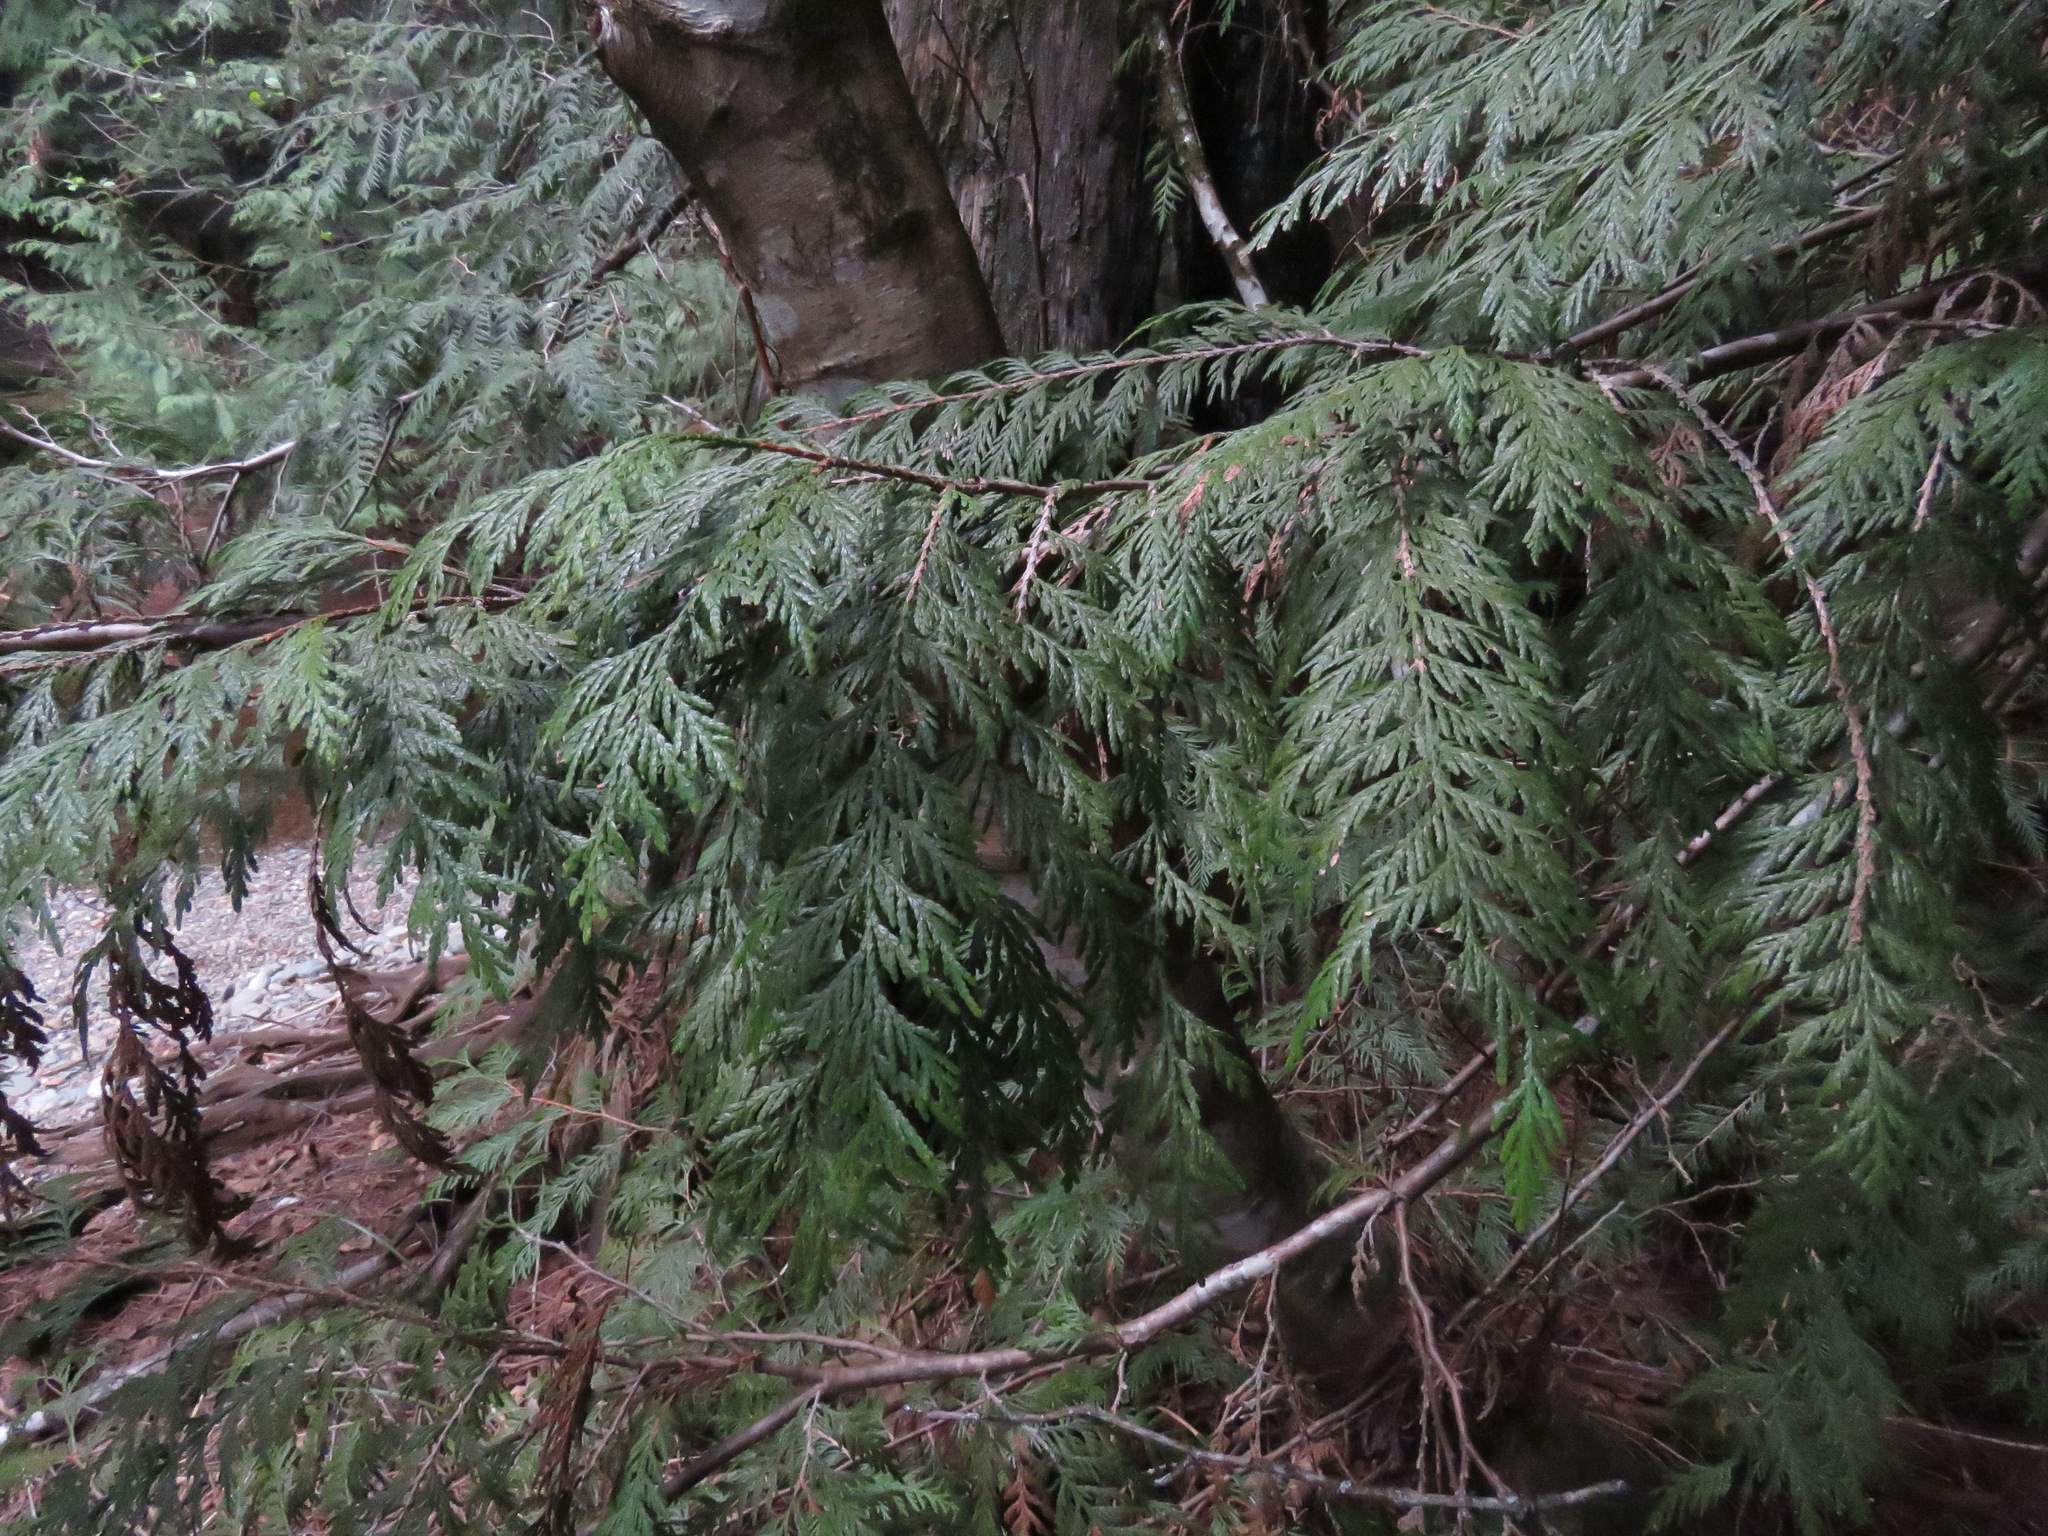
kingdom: Plantae
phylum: Tracheophyta
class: Pinopsida
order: Pinales
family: Cupressaceae
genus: Thuja
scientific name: Thuja plicata
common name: Western red-cedar
